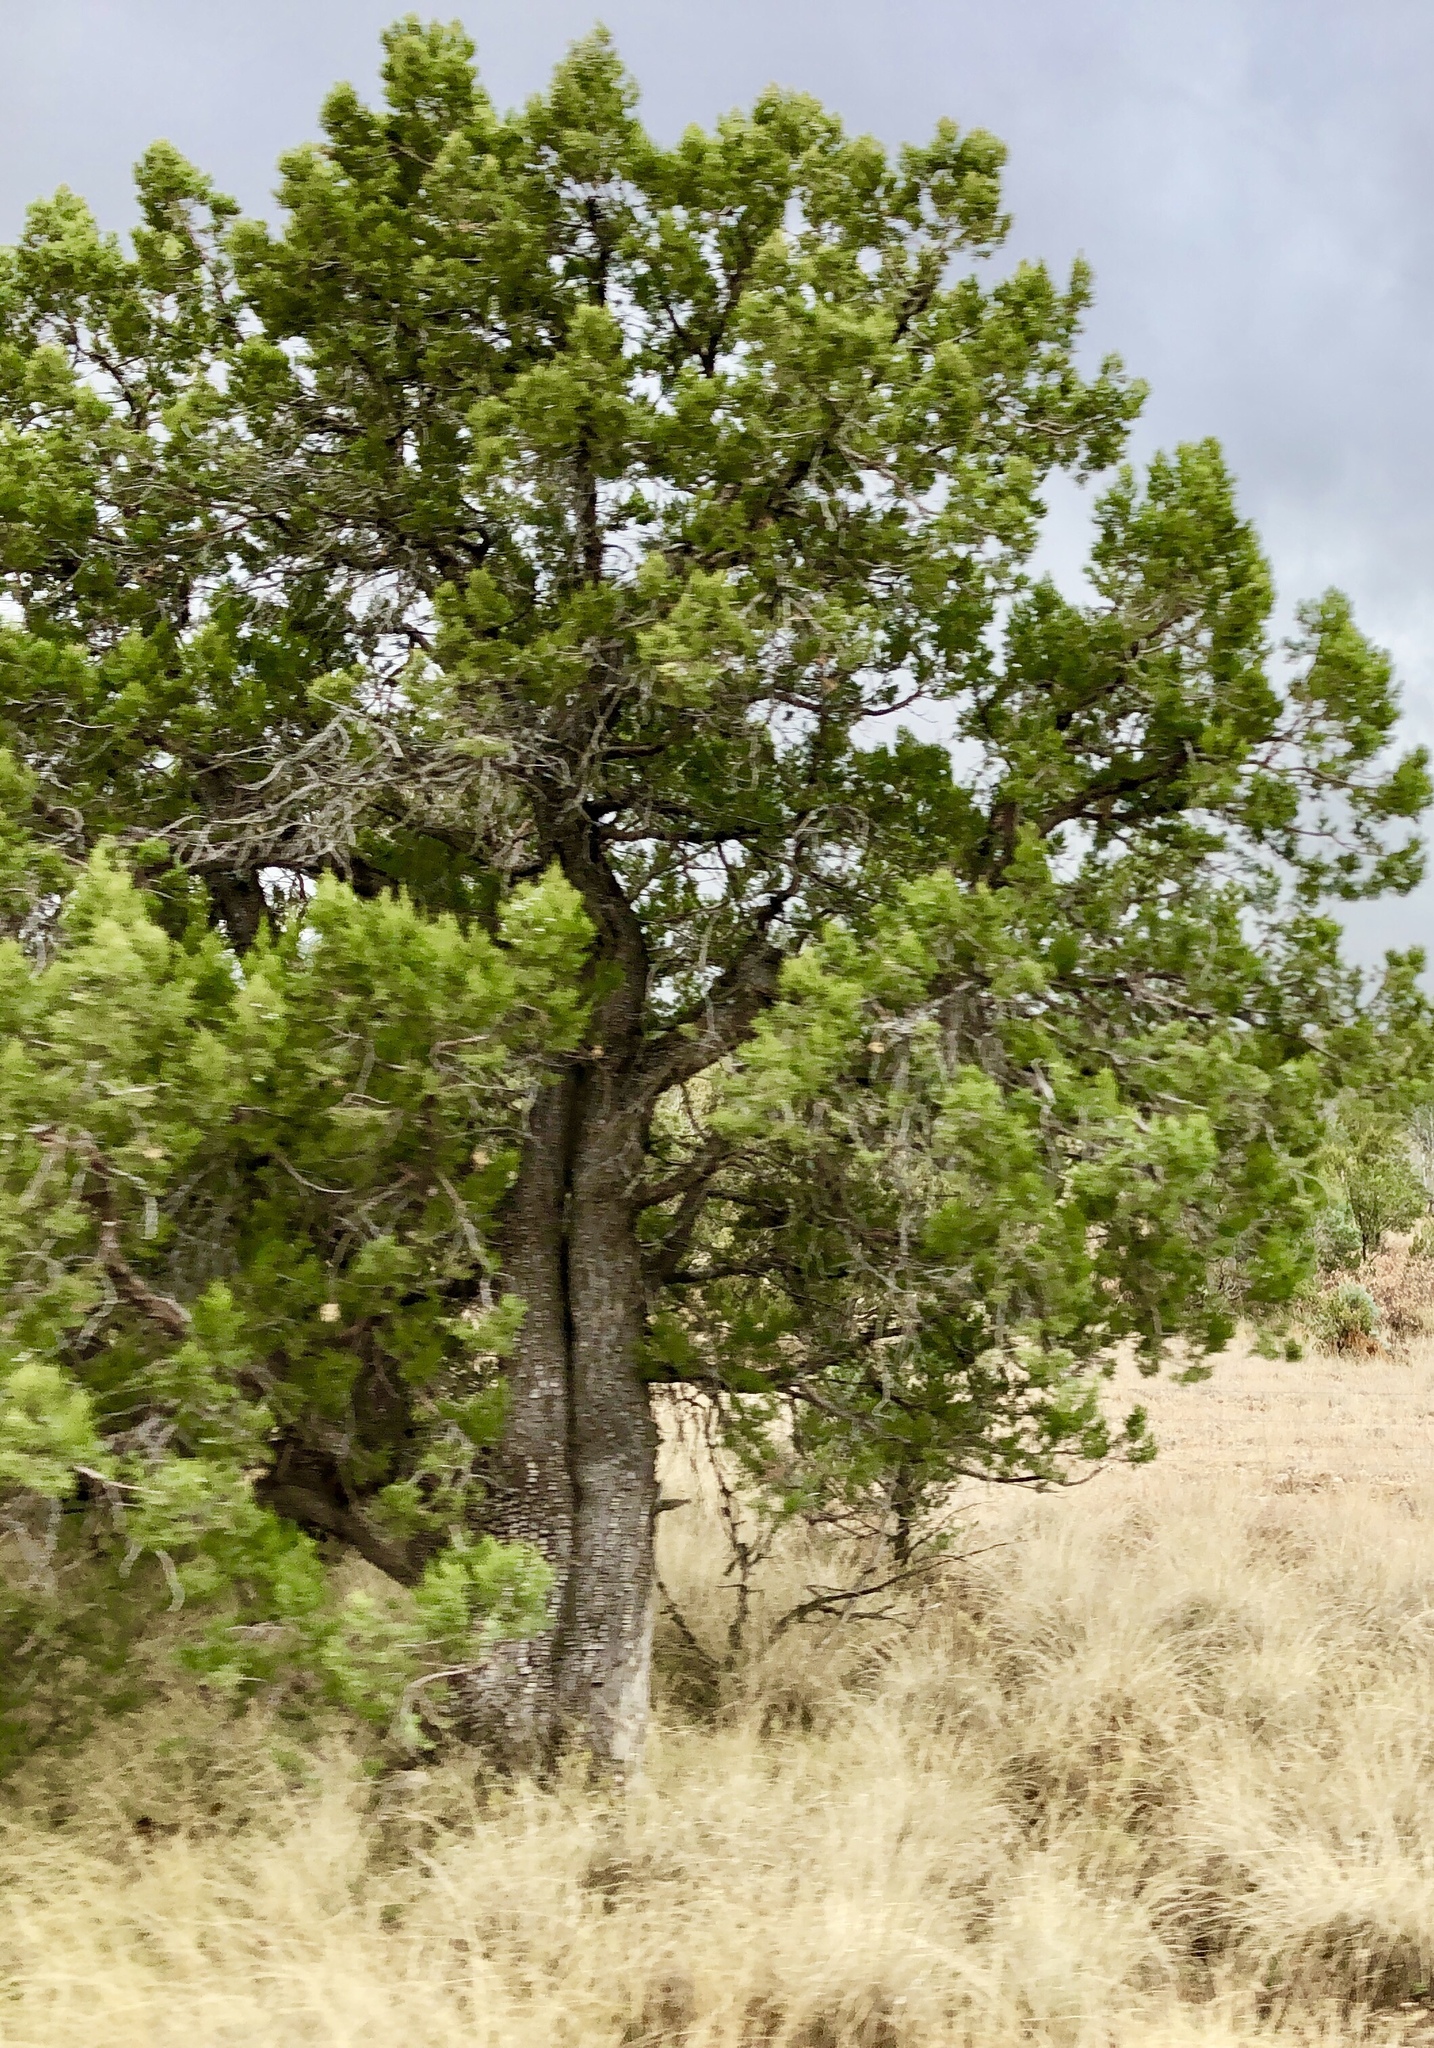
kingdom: Plantae
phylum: Tracheophyta
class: Pinopsida
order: Pinales
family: Cupressaceae
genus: Juniperus
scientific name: Juniperus deppeana
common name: Alligator juniper
